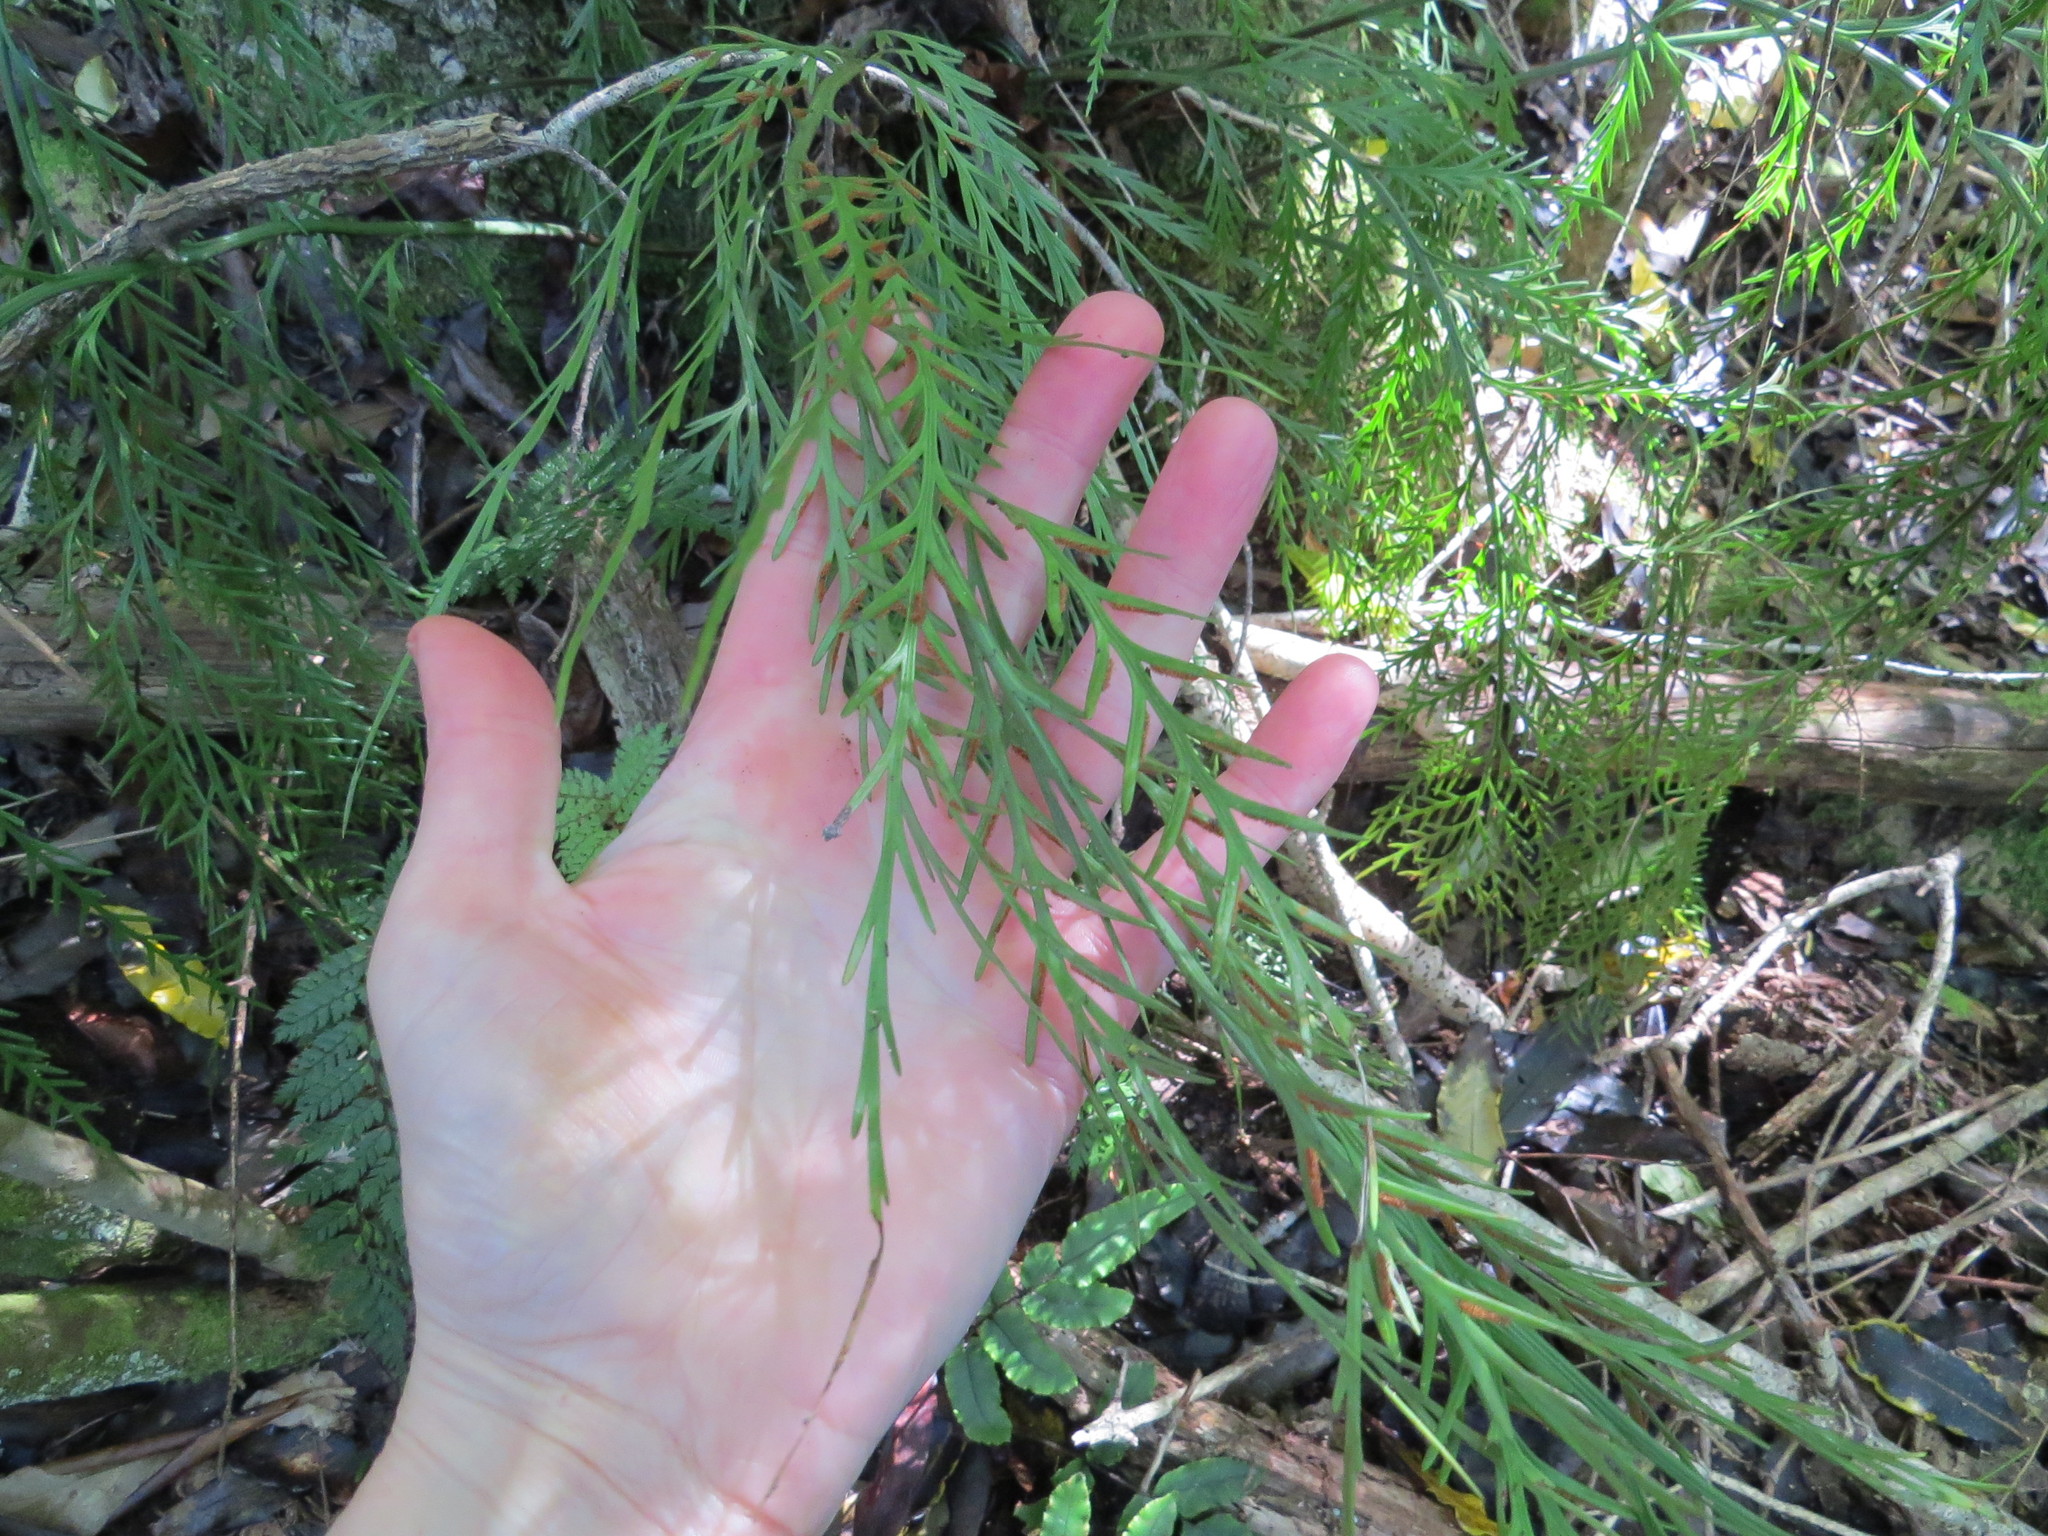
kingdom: Plantae
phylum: Tracheophyta
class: Polypodiopsida
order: Polypodiales
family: Aspleniaceae
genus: Asplenium
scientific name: Asplenium flaccidum
